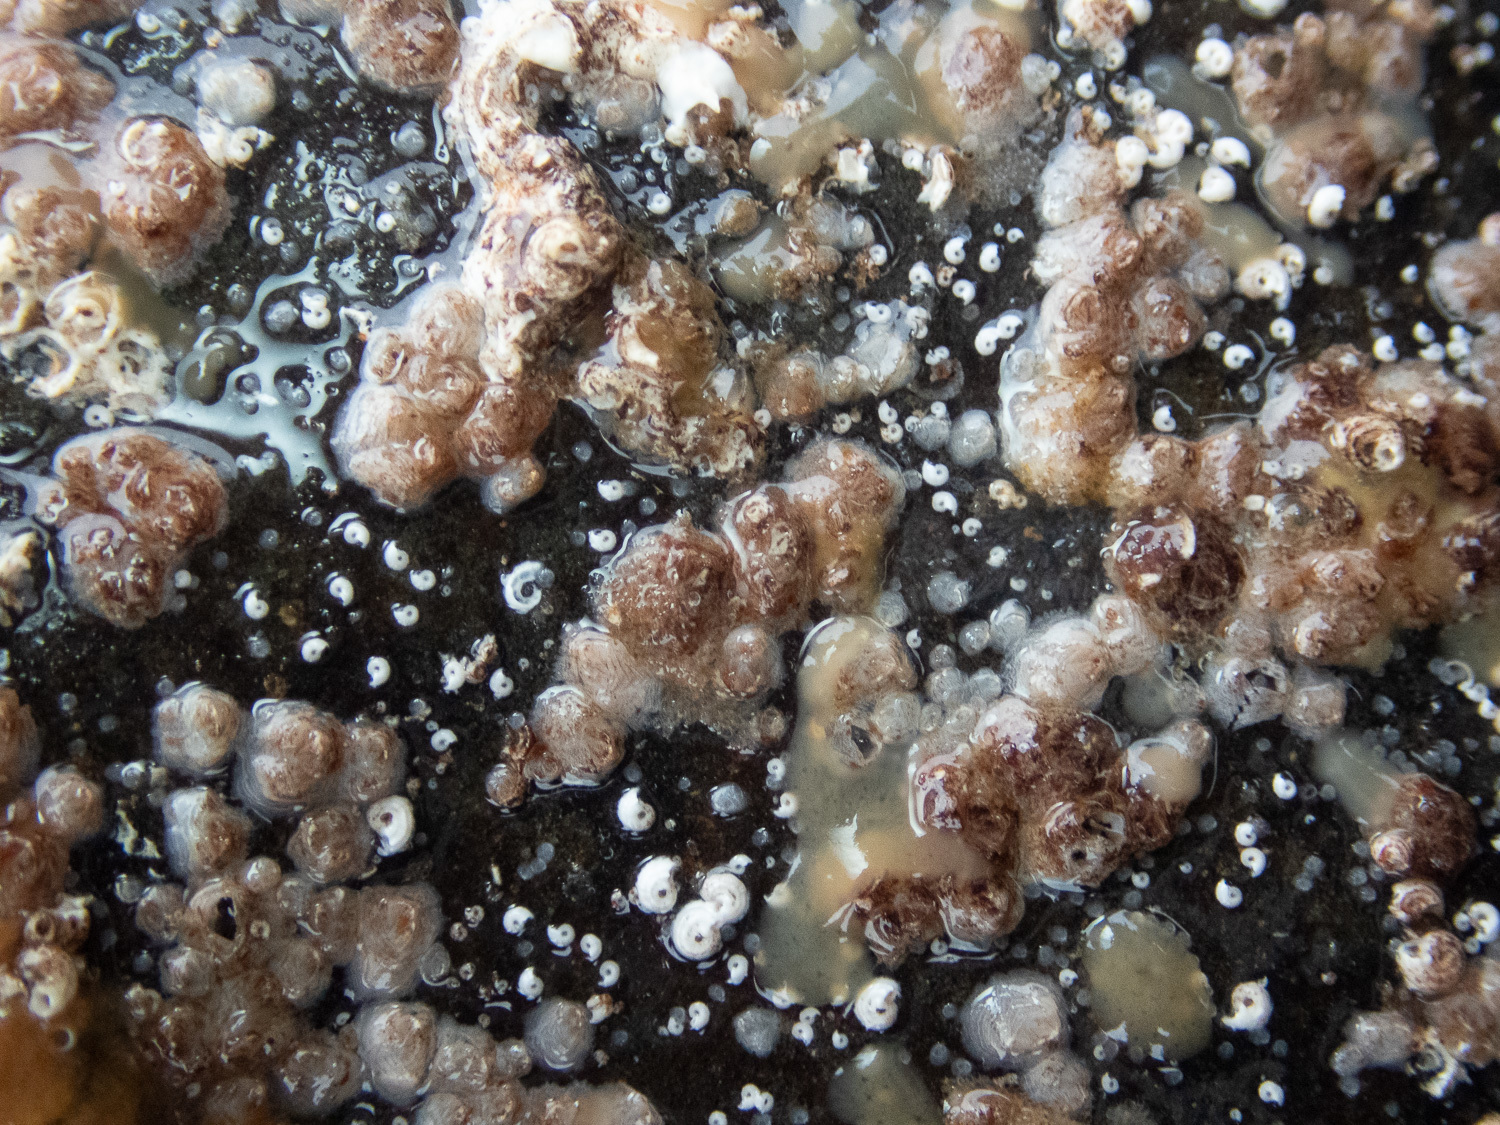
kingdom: Animalia
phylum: Arthropoda
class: Maxillopoda
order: Sessilia
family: Verrucidae
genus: Verruca
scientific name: Verruca stroemia
